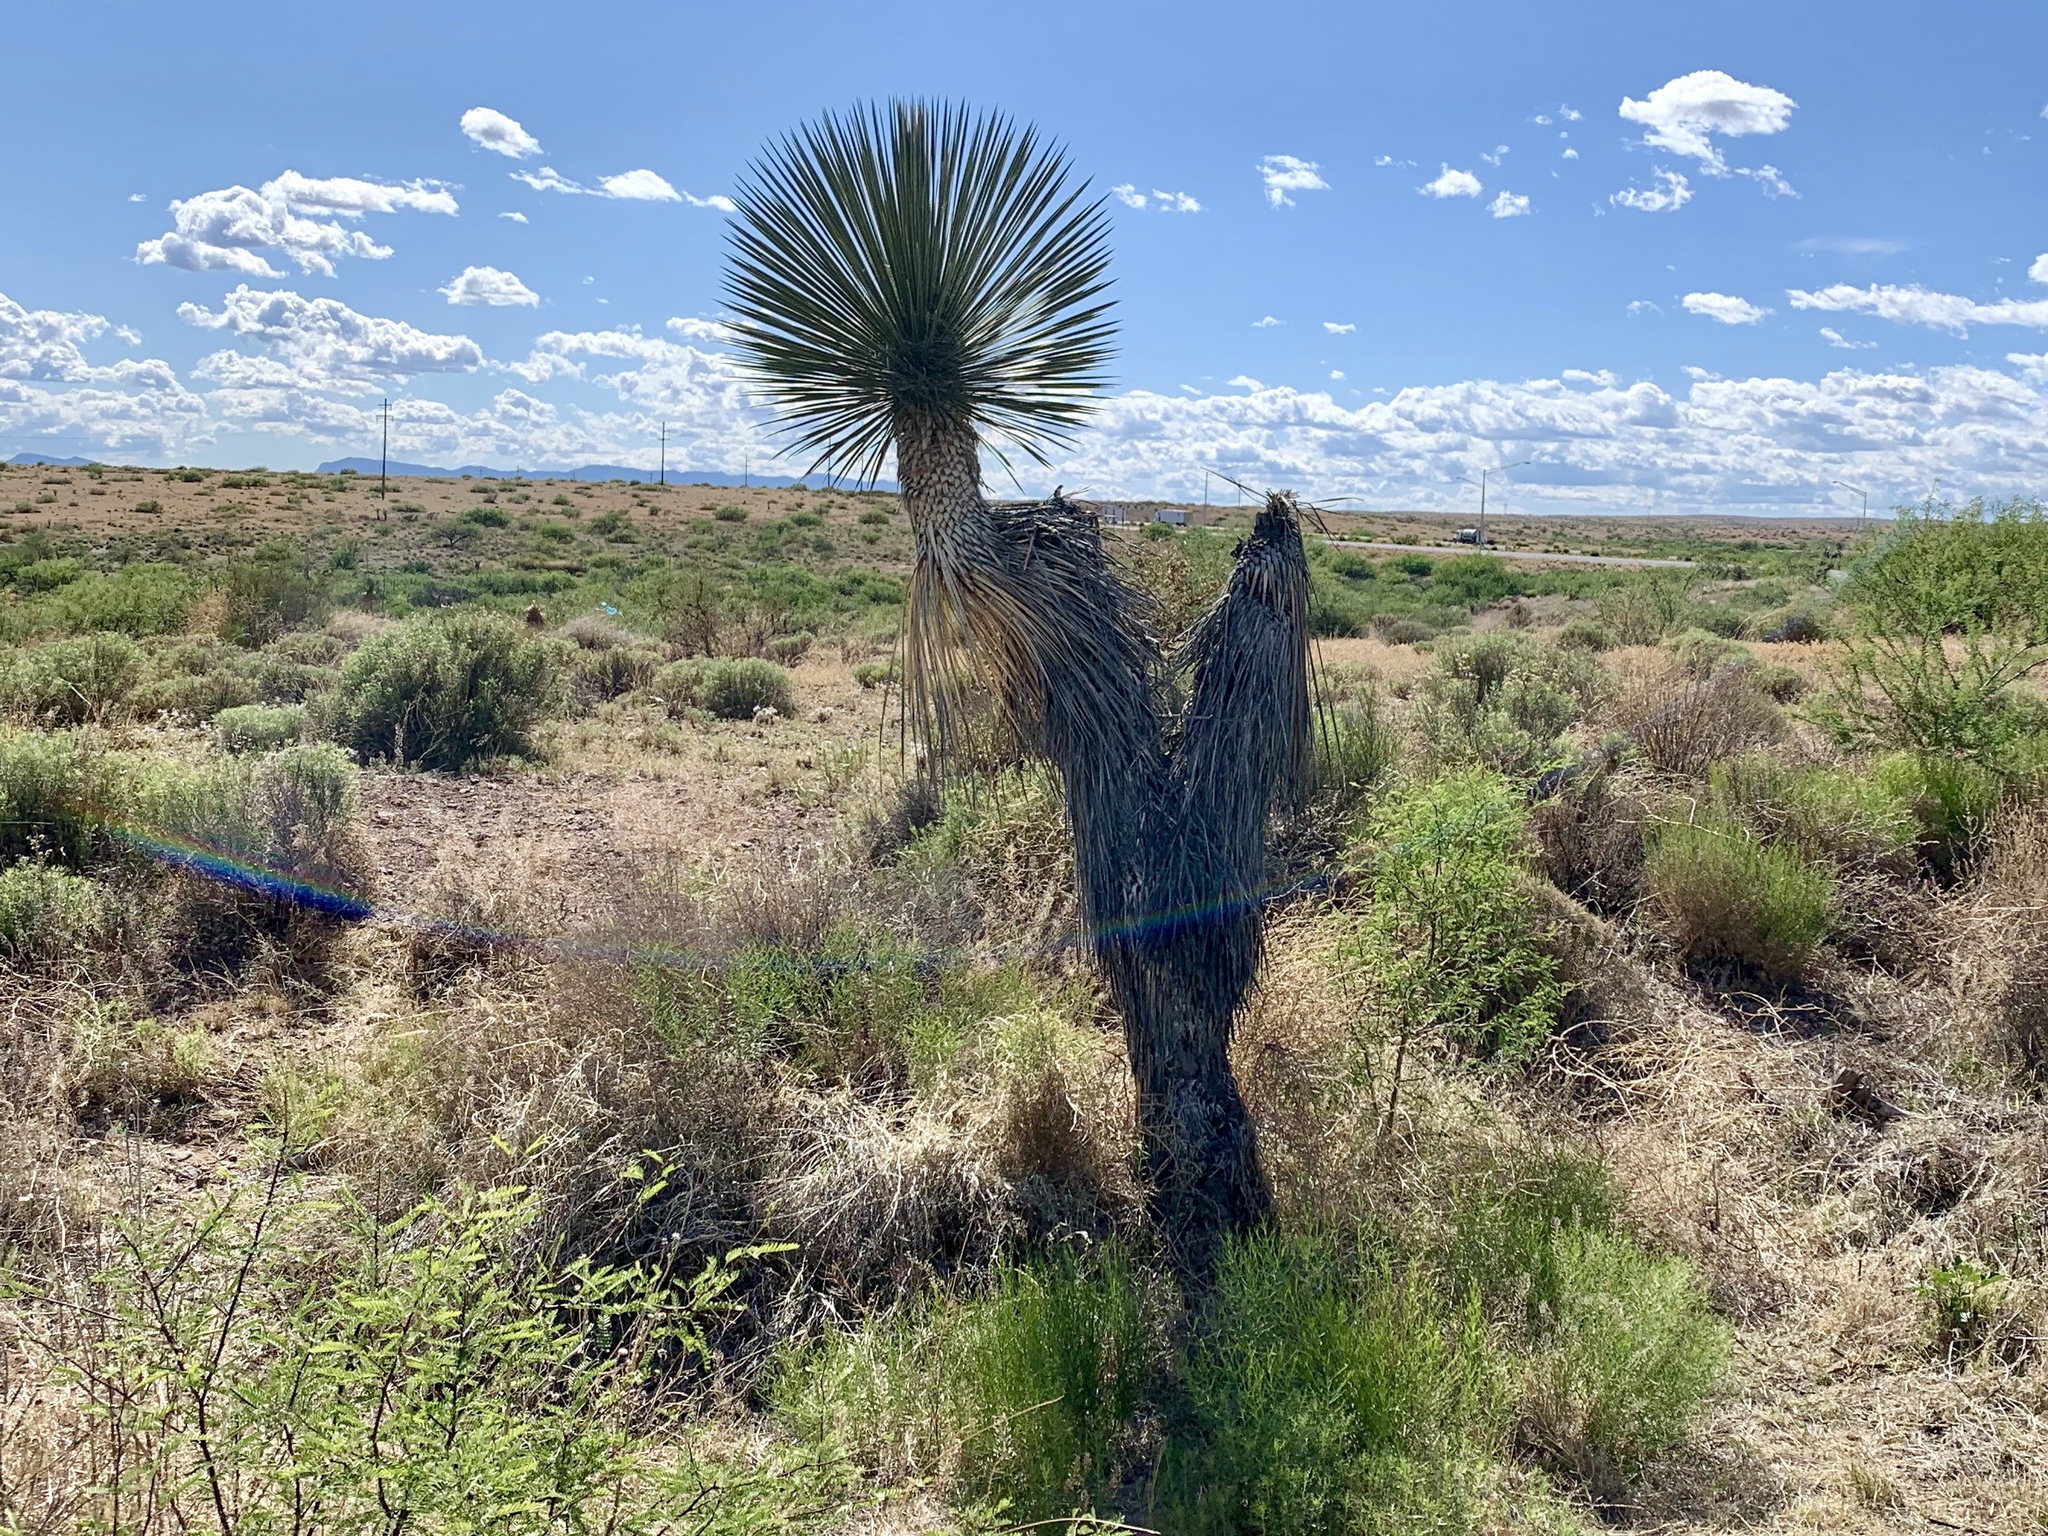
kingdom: Plantae
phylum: Tracheophyta
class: Liliopsida
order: Asparagales
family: Asparagaceae
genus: Yucca
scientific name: Yucca elata
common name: Palmella
